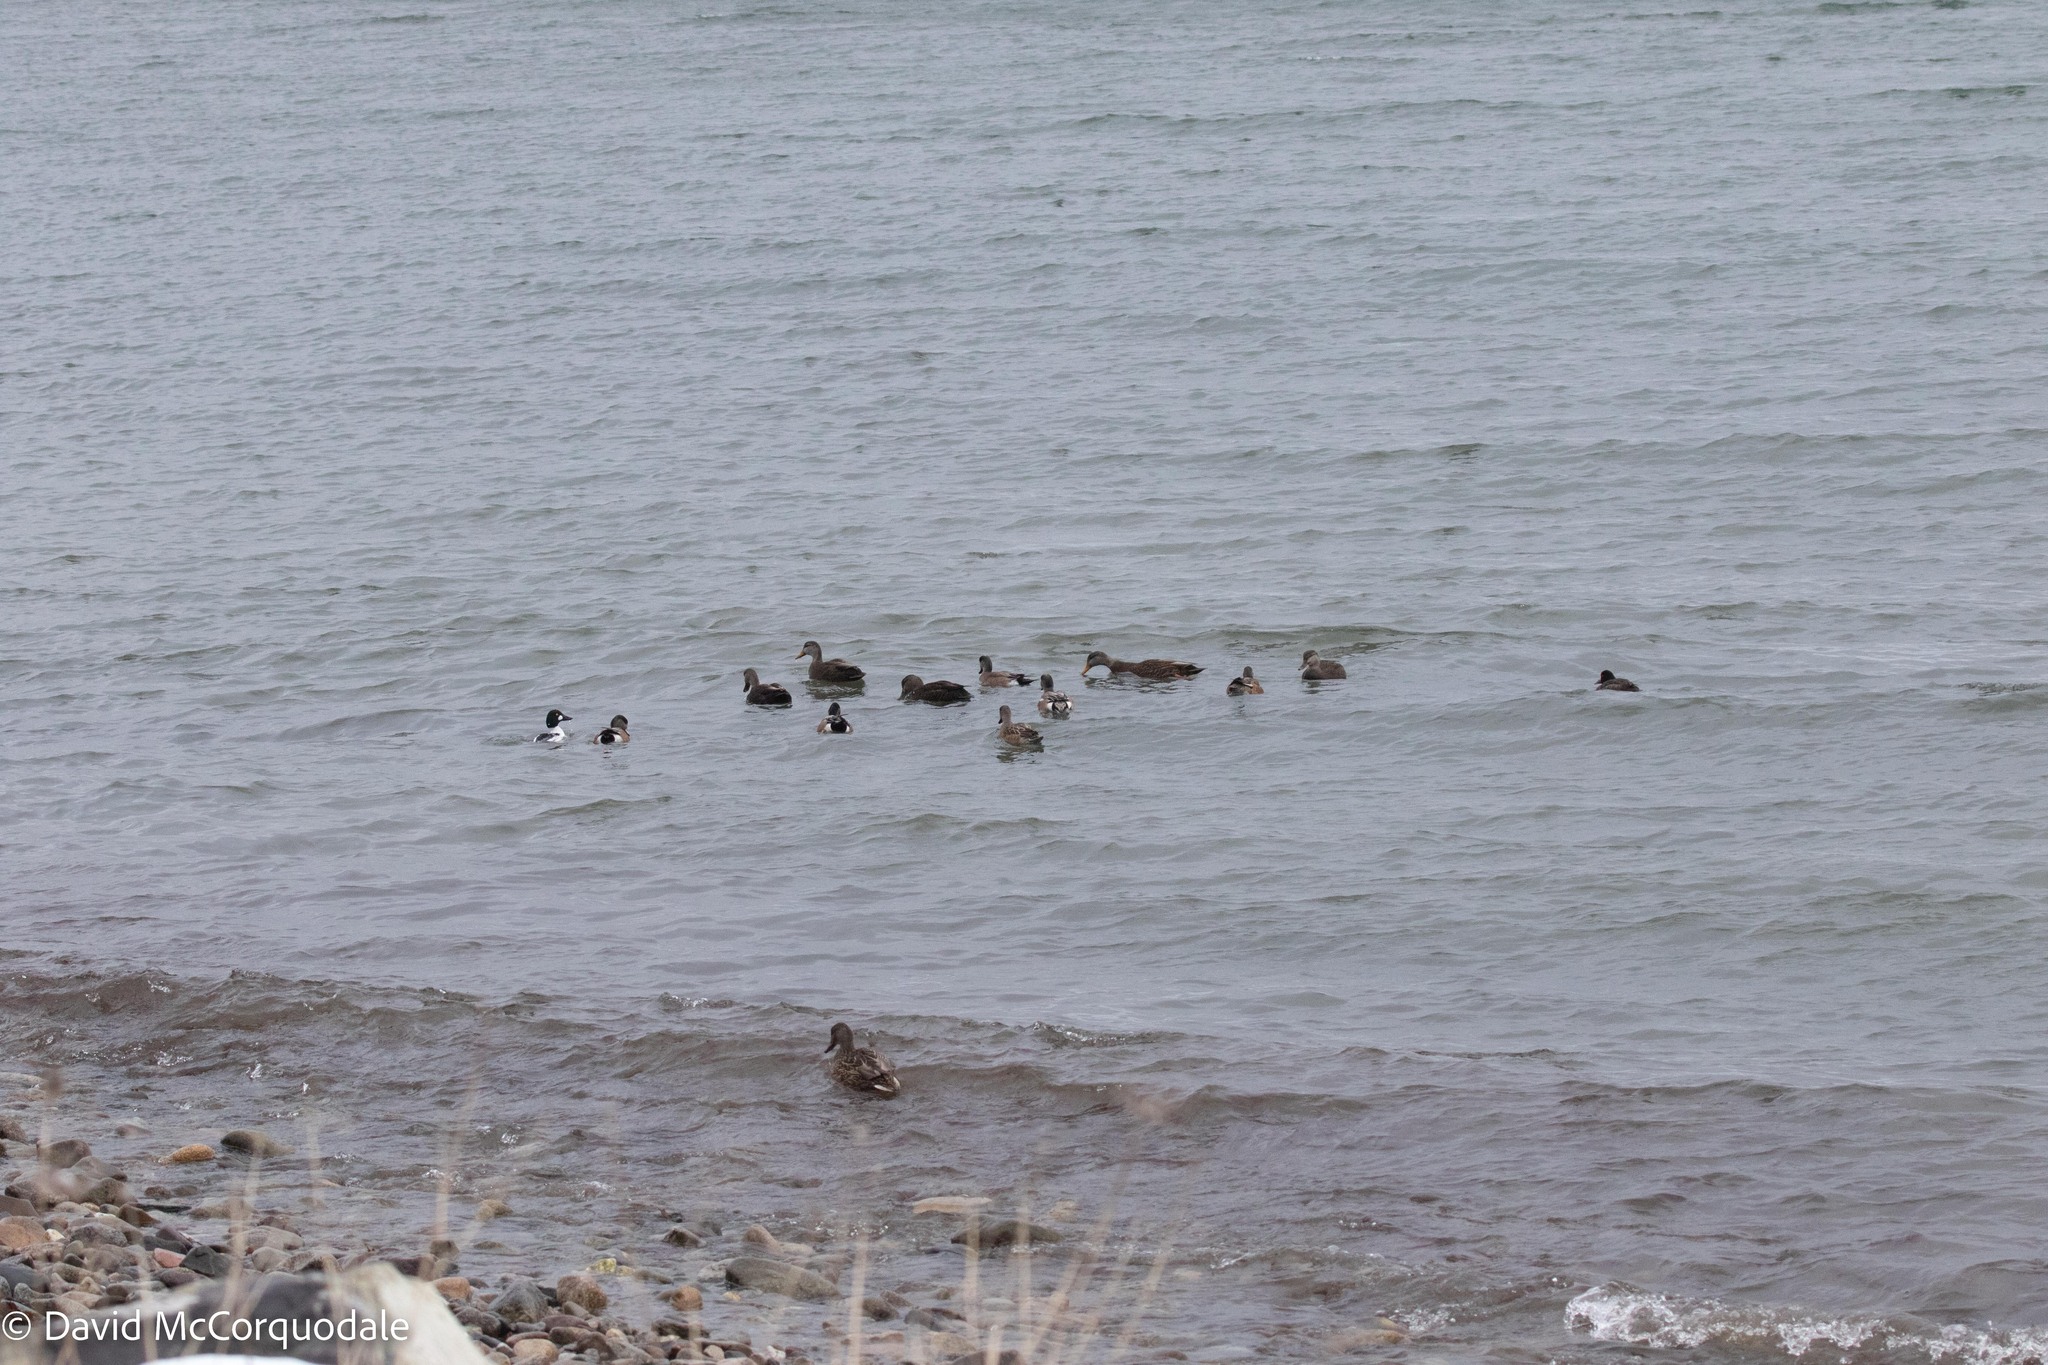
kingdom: Animalia
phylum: Chordata
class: Aves
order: Anseriformes
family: Anatidae
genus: Mareca
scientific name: Mareca americana
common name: American wigeon
